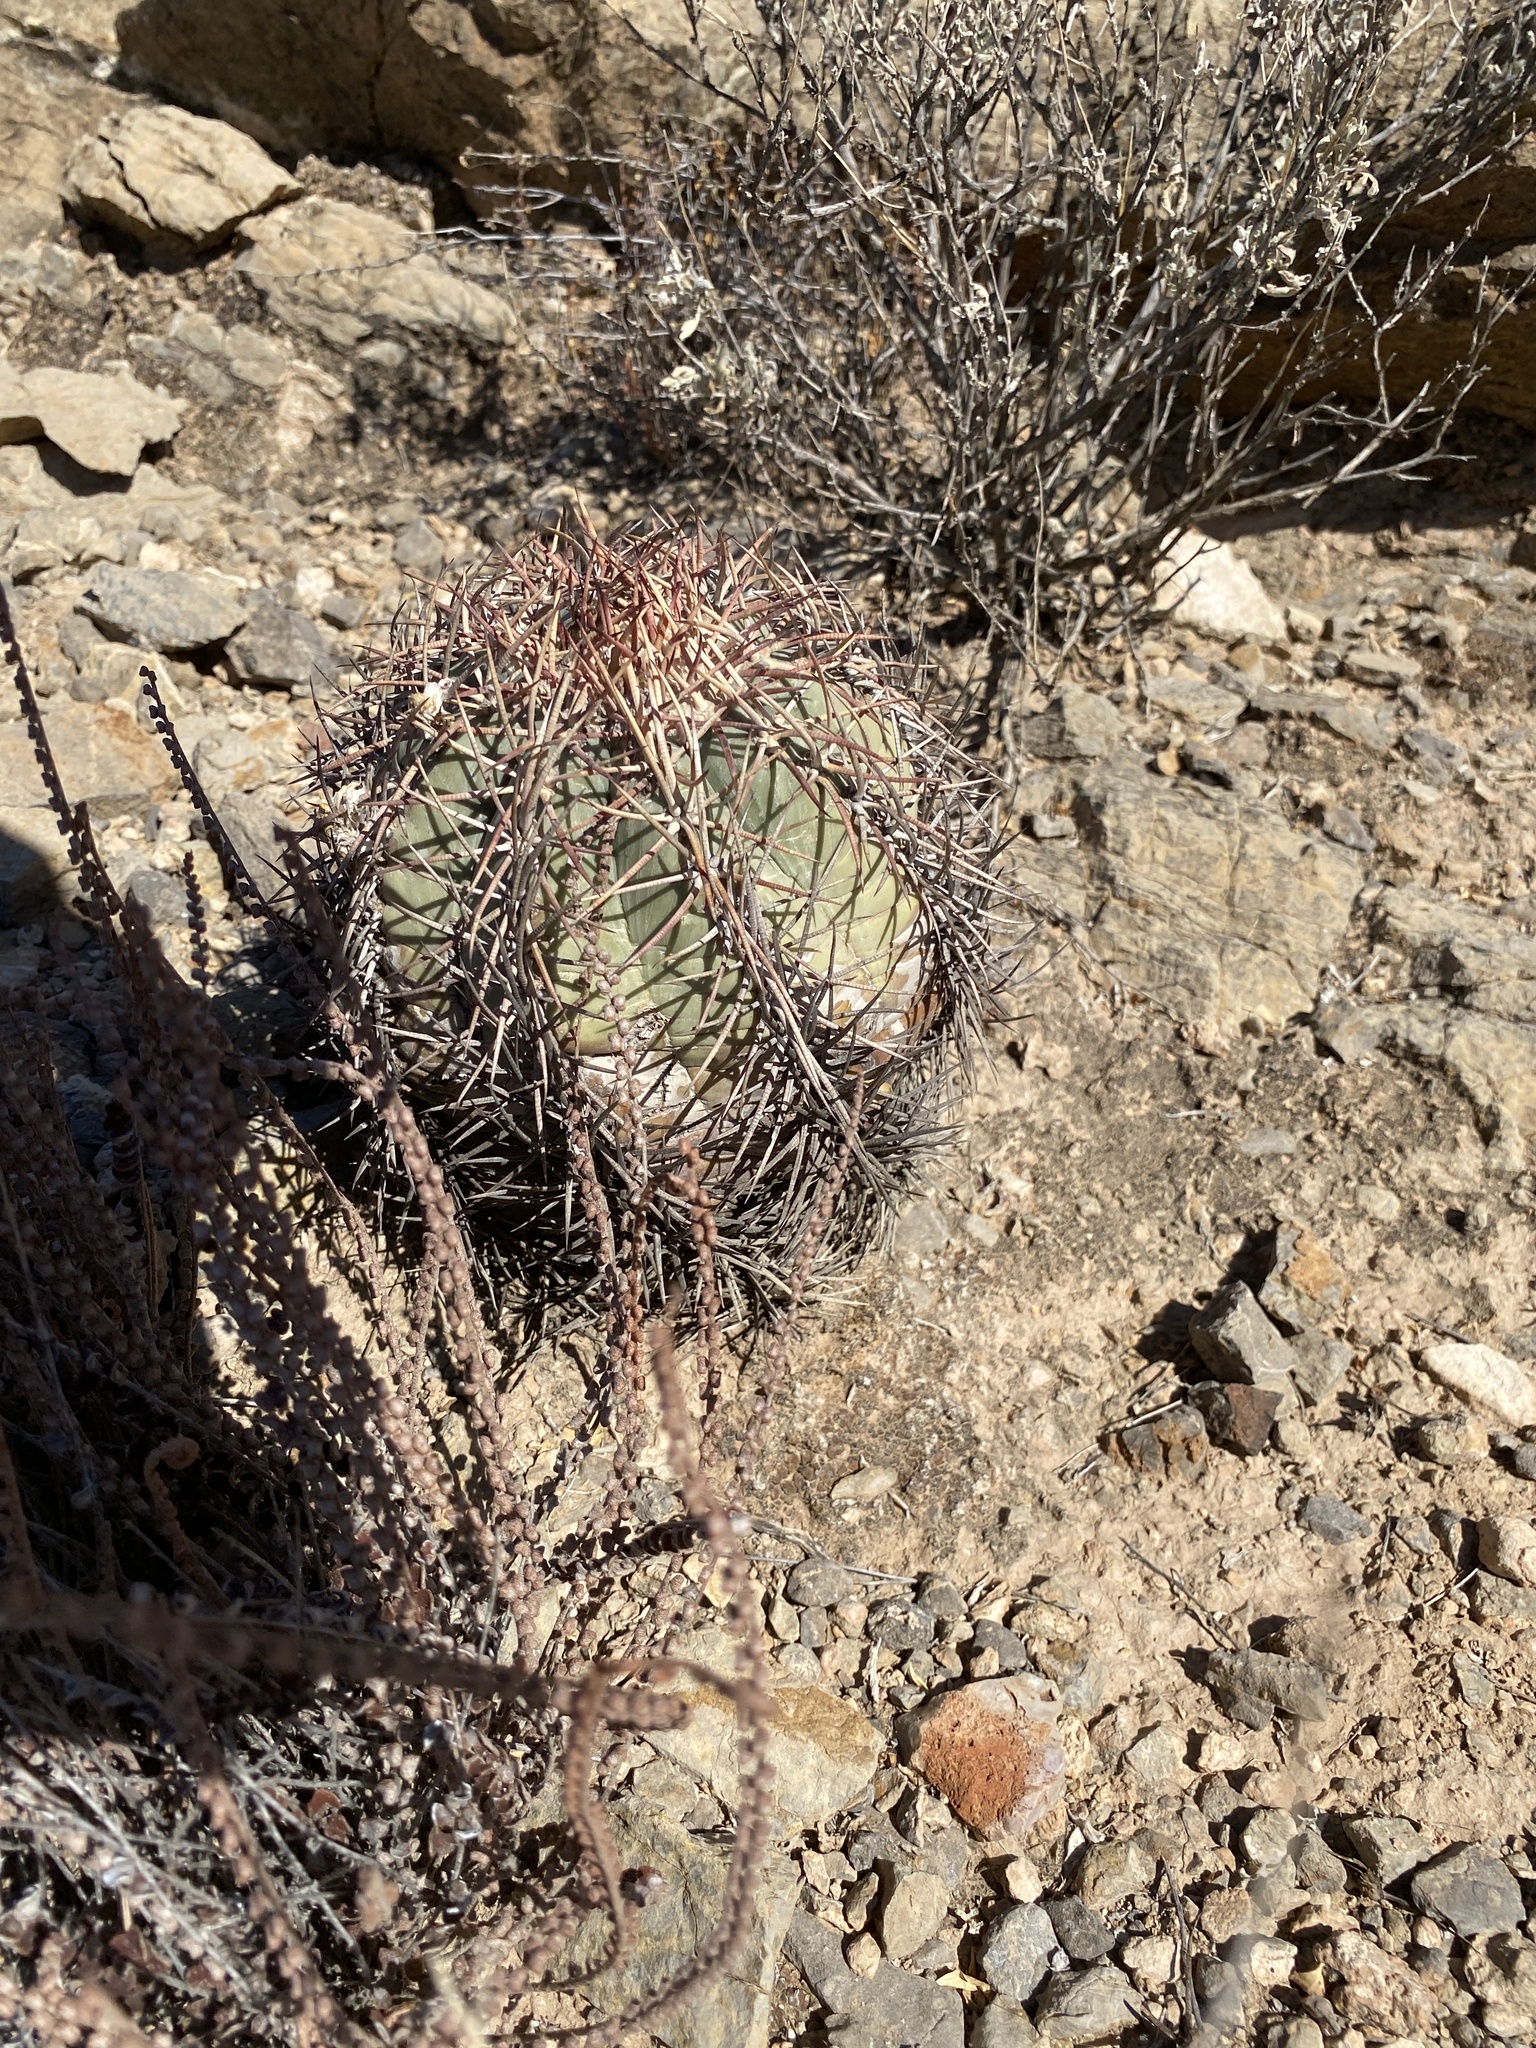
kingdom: Plantae
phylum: Tracheophyta
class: Magnoliopsida
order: Caryophyllales
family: Cactaceae
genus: Echinocactus
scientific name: Echinocactus horizonthalonius
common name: Devilshead
